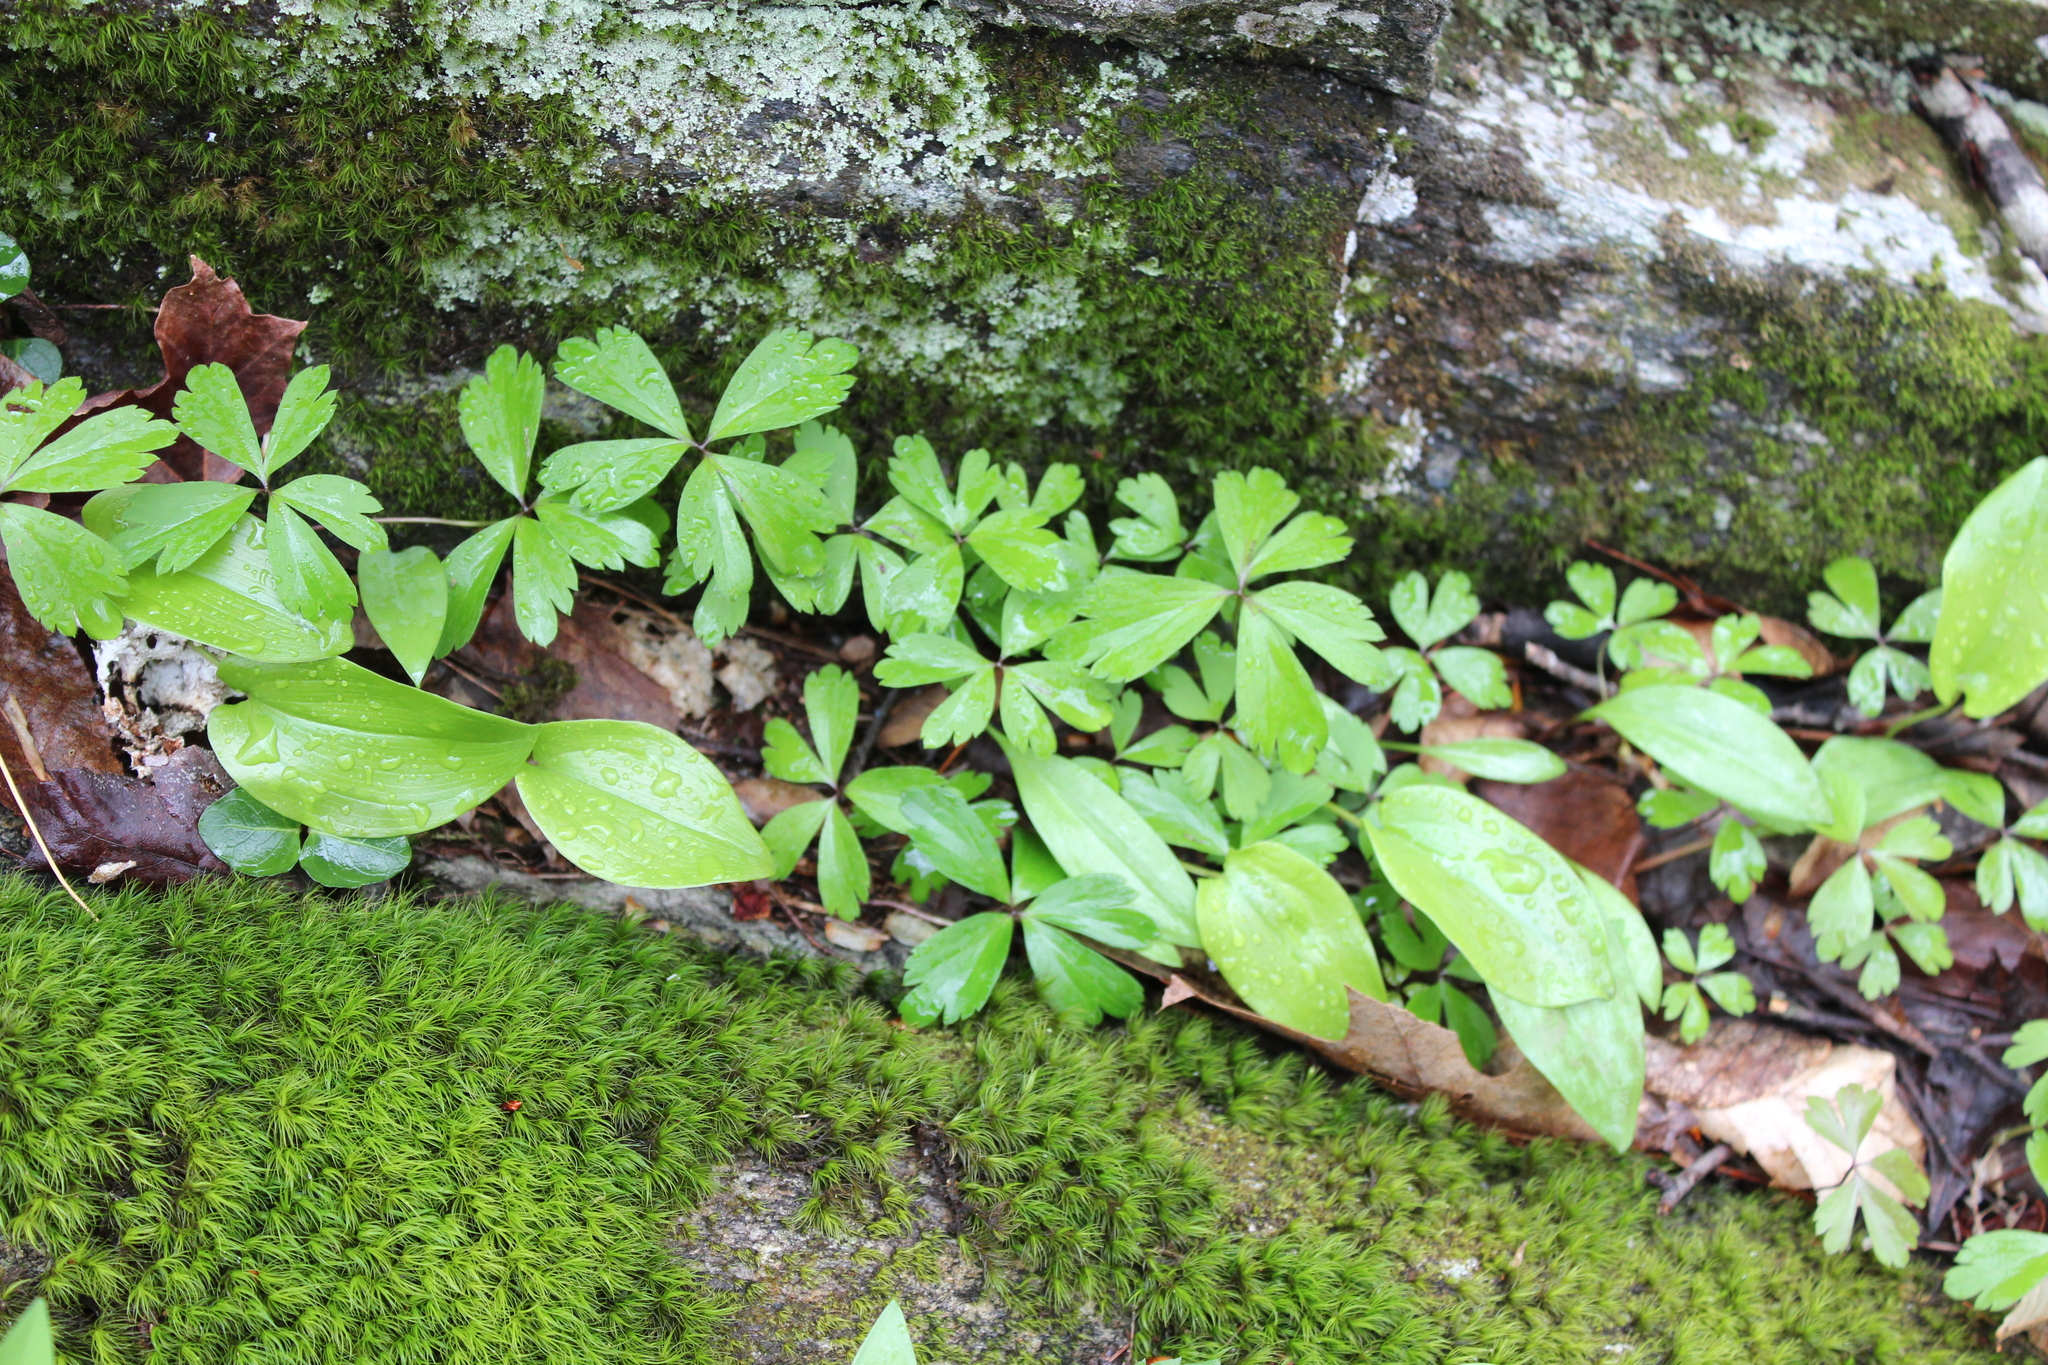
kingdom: Plantae
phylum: Tracheophyta
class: Magnoliopsida
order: Ranunculales
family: Ranunculaceae
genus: Anemone
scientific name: Anemone quinquefolia
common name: Wood anemone
